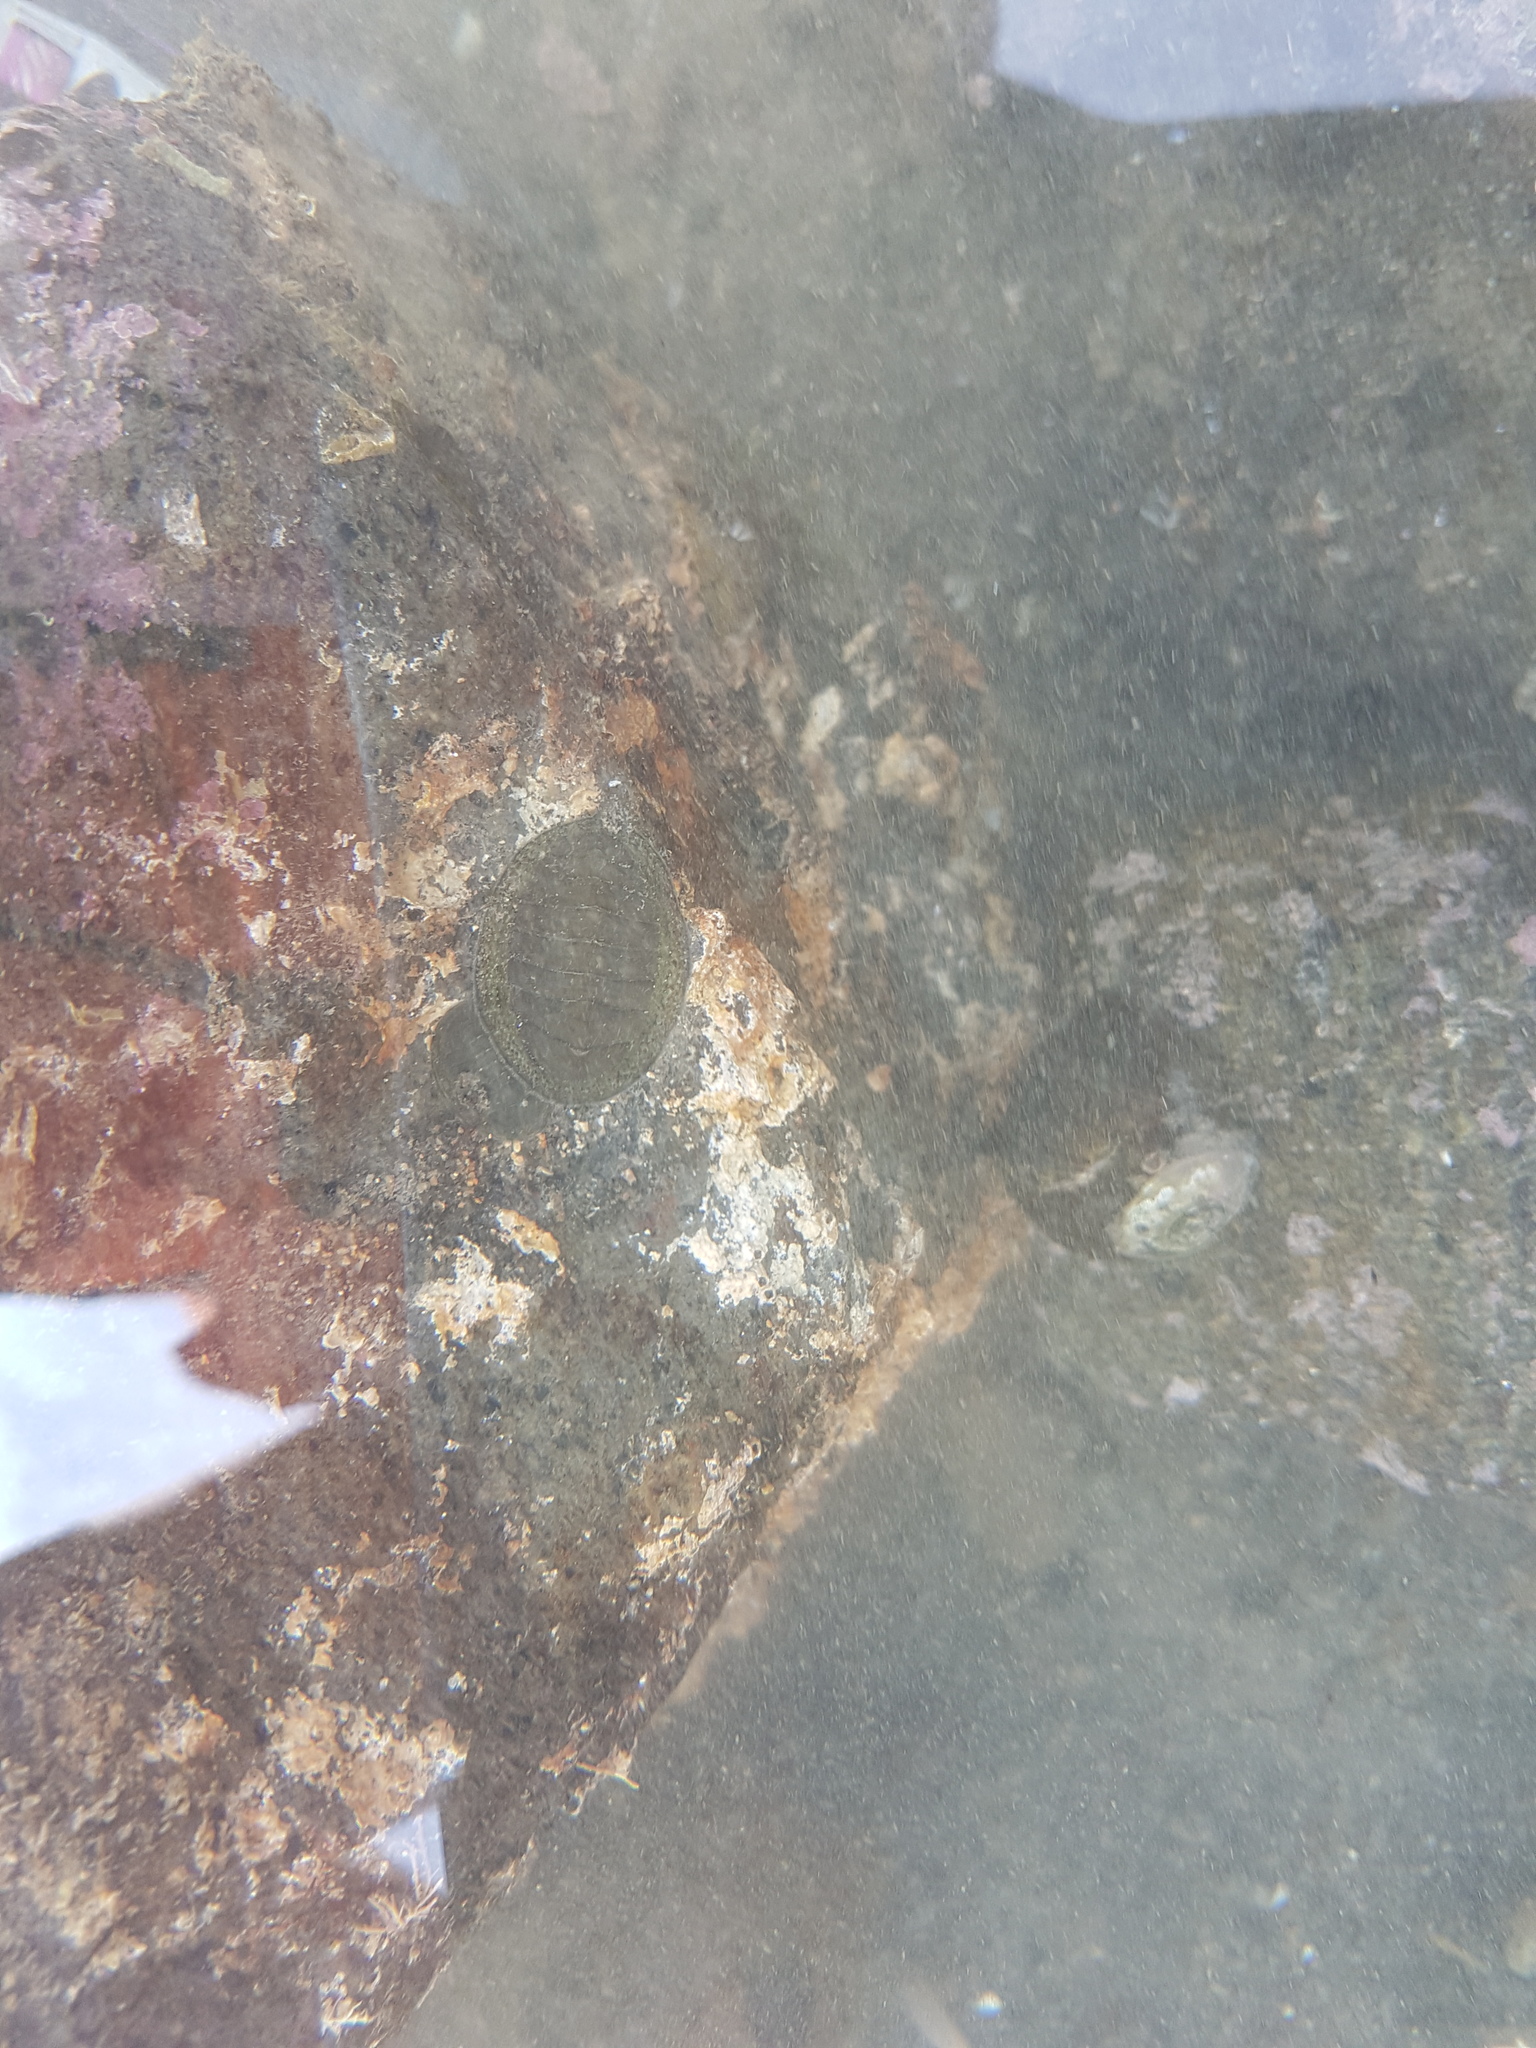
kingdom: Animalia
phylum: Mollusca
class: Polyplacophora
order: Chitonida
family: Chitonidae
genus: Chiton
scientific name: Chiton glaucus
